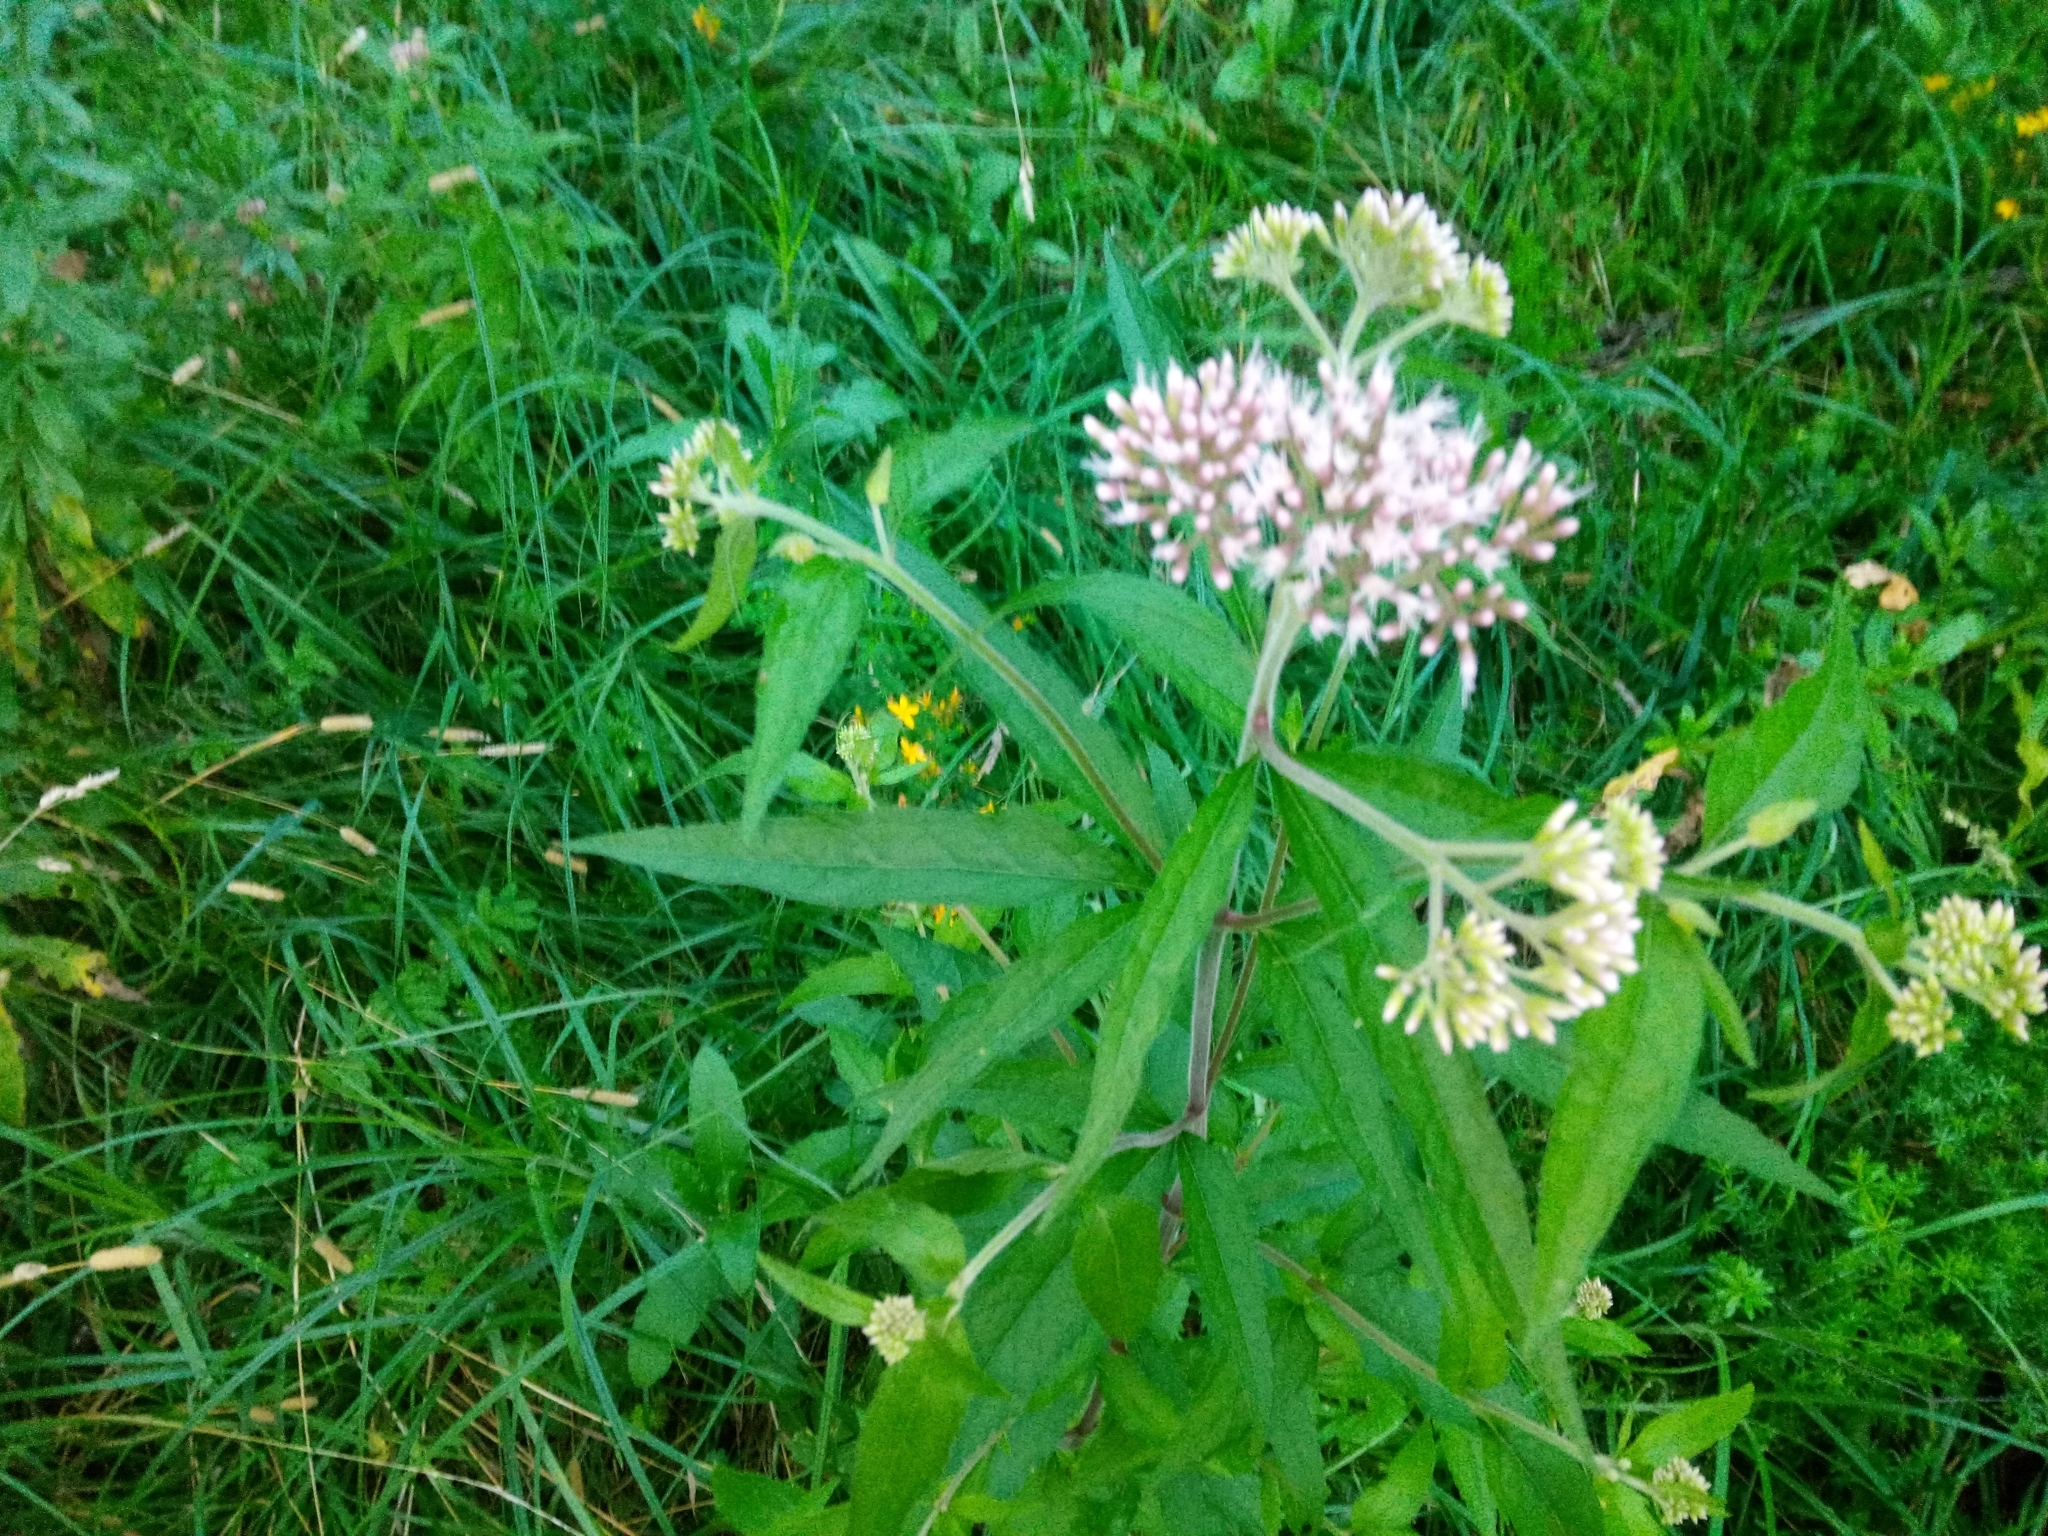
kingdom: Plantae
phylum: Tracheophyta
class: Magnoliopsida
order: Asterales
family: Asteraceae
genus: Eupatorium
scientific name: Eupatorium cannabinum
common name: Hemp-agrimony
